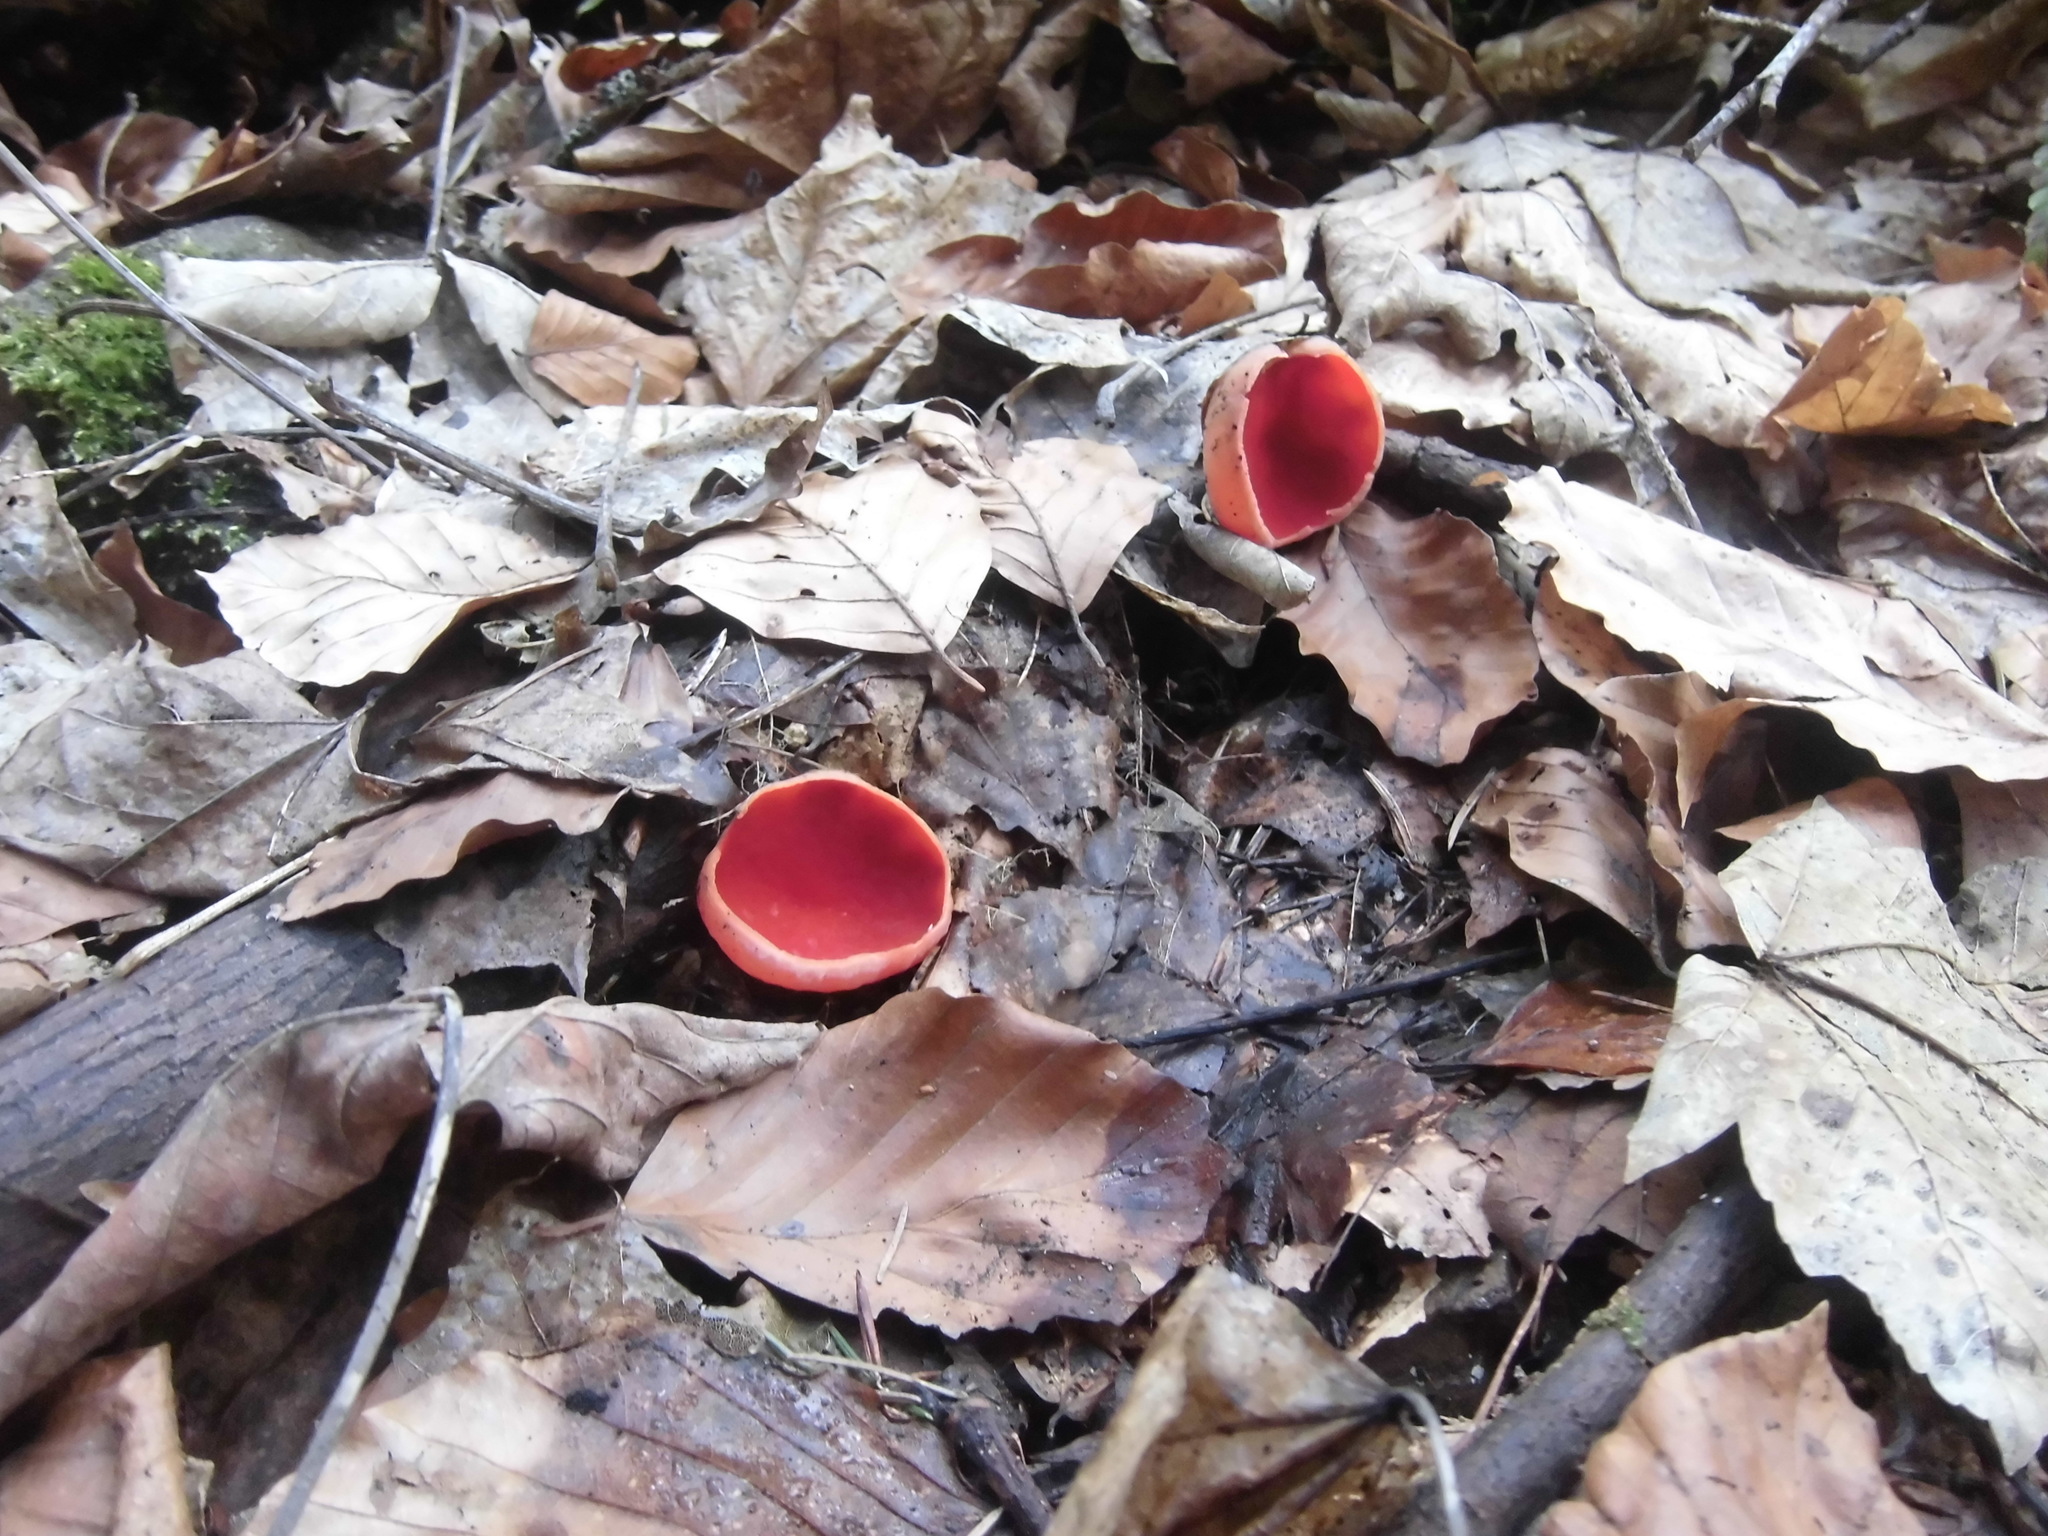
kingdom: Fungi
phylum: Ascomycota
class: Pezizomycetes
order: Pezizales
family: Sarcoscyphaceae
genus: Sarcoscypha
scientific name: Sarcoscypha
